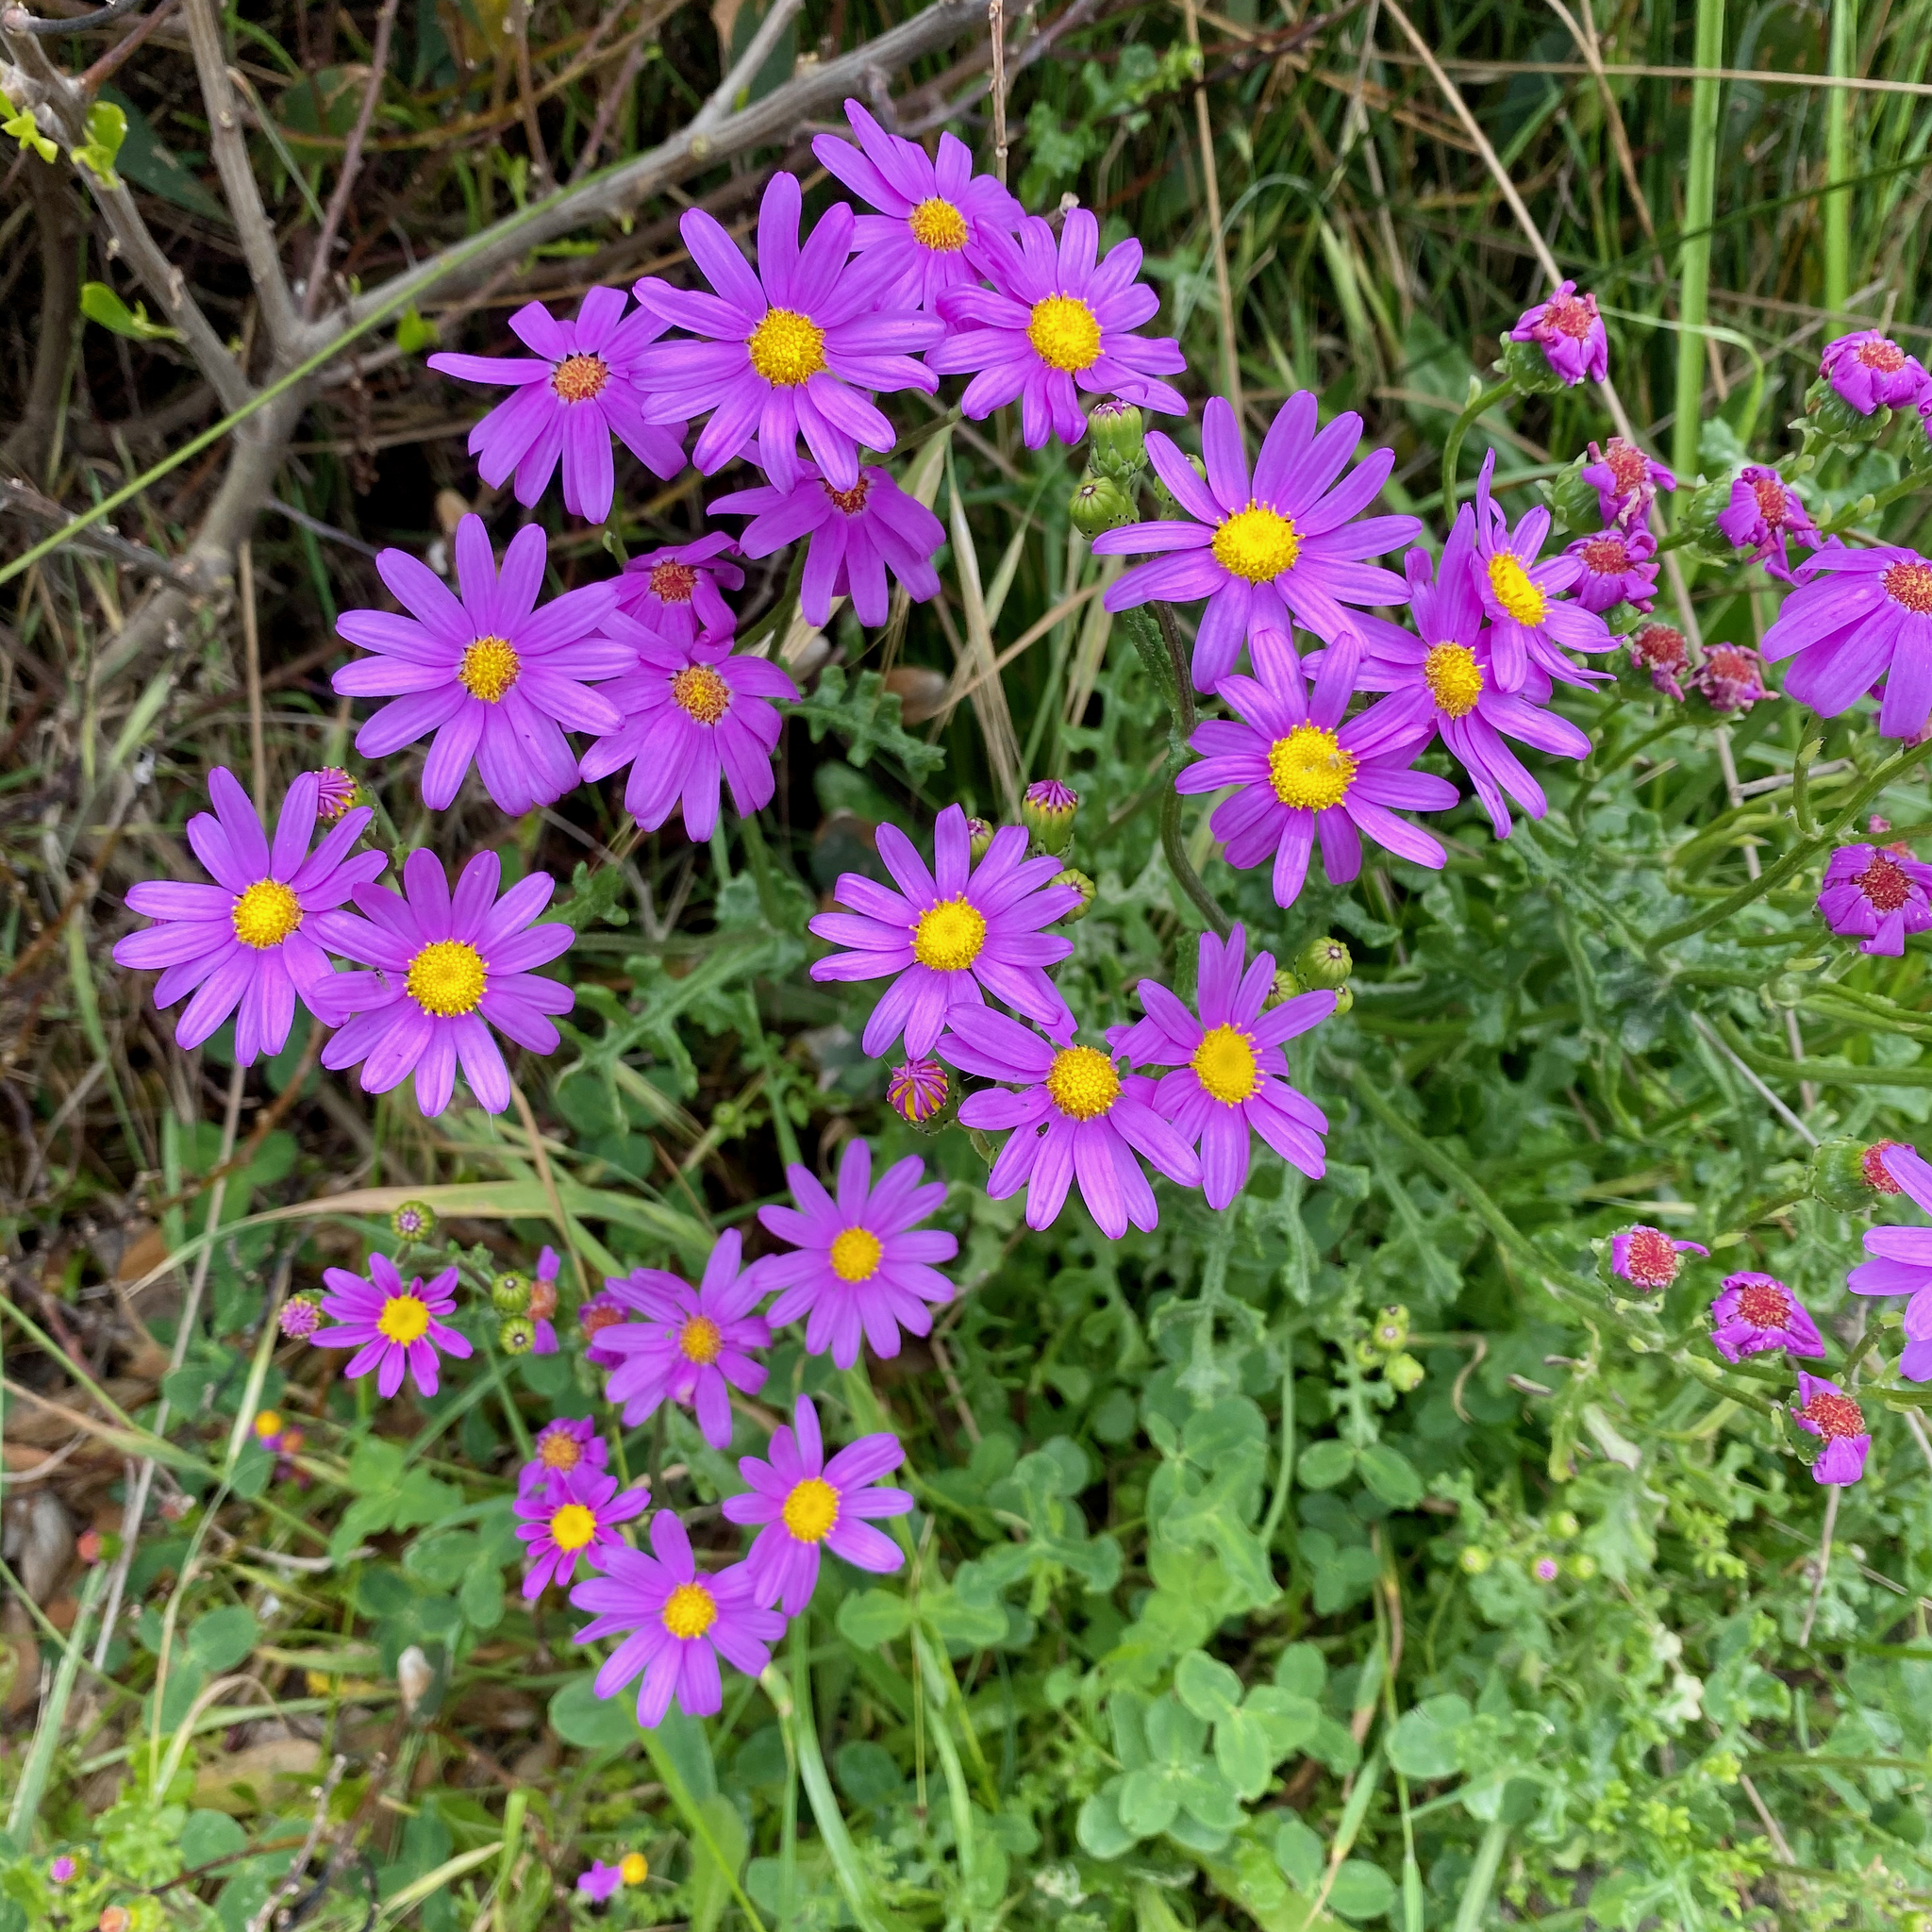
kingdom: Plantae
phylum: Tracheophyta
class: Magnoliopsida
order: Asterales
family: Asteraceae
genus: Senecio
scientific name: Senecio elegans
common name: Purple groundsel
